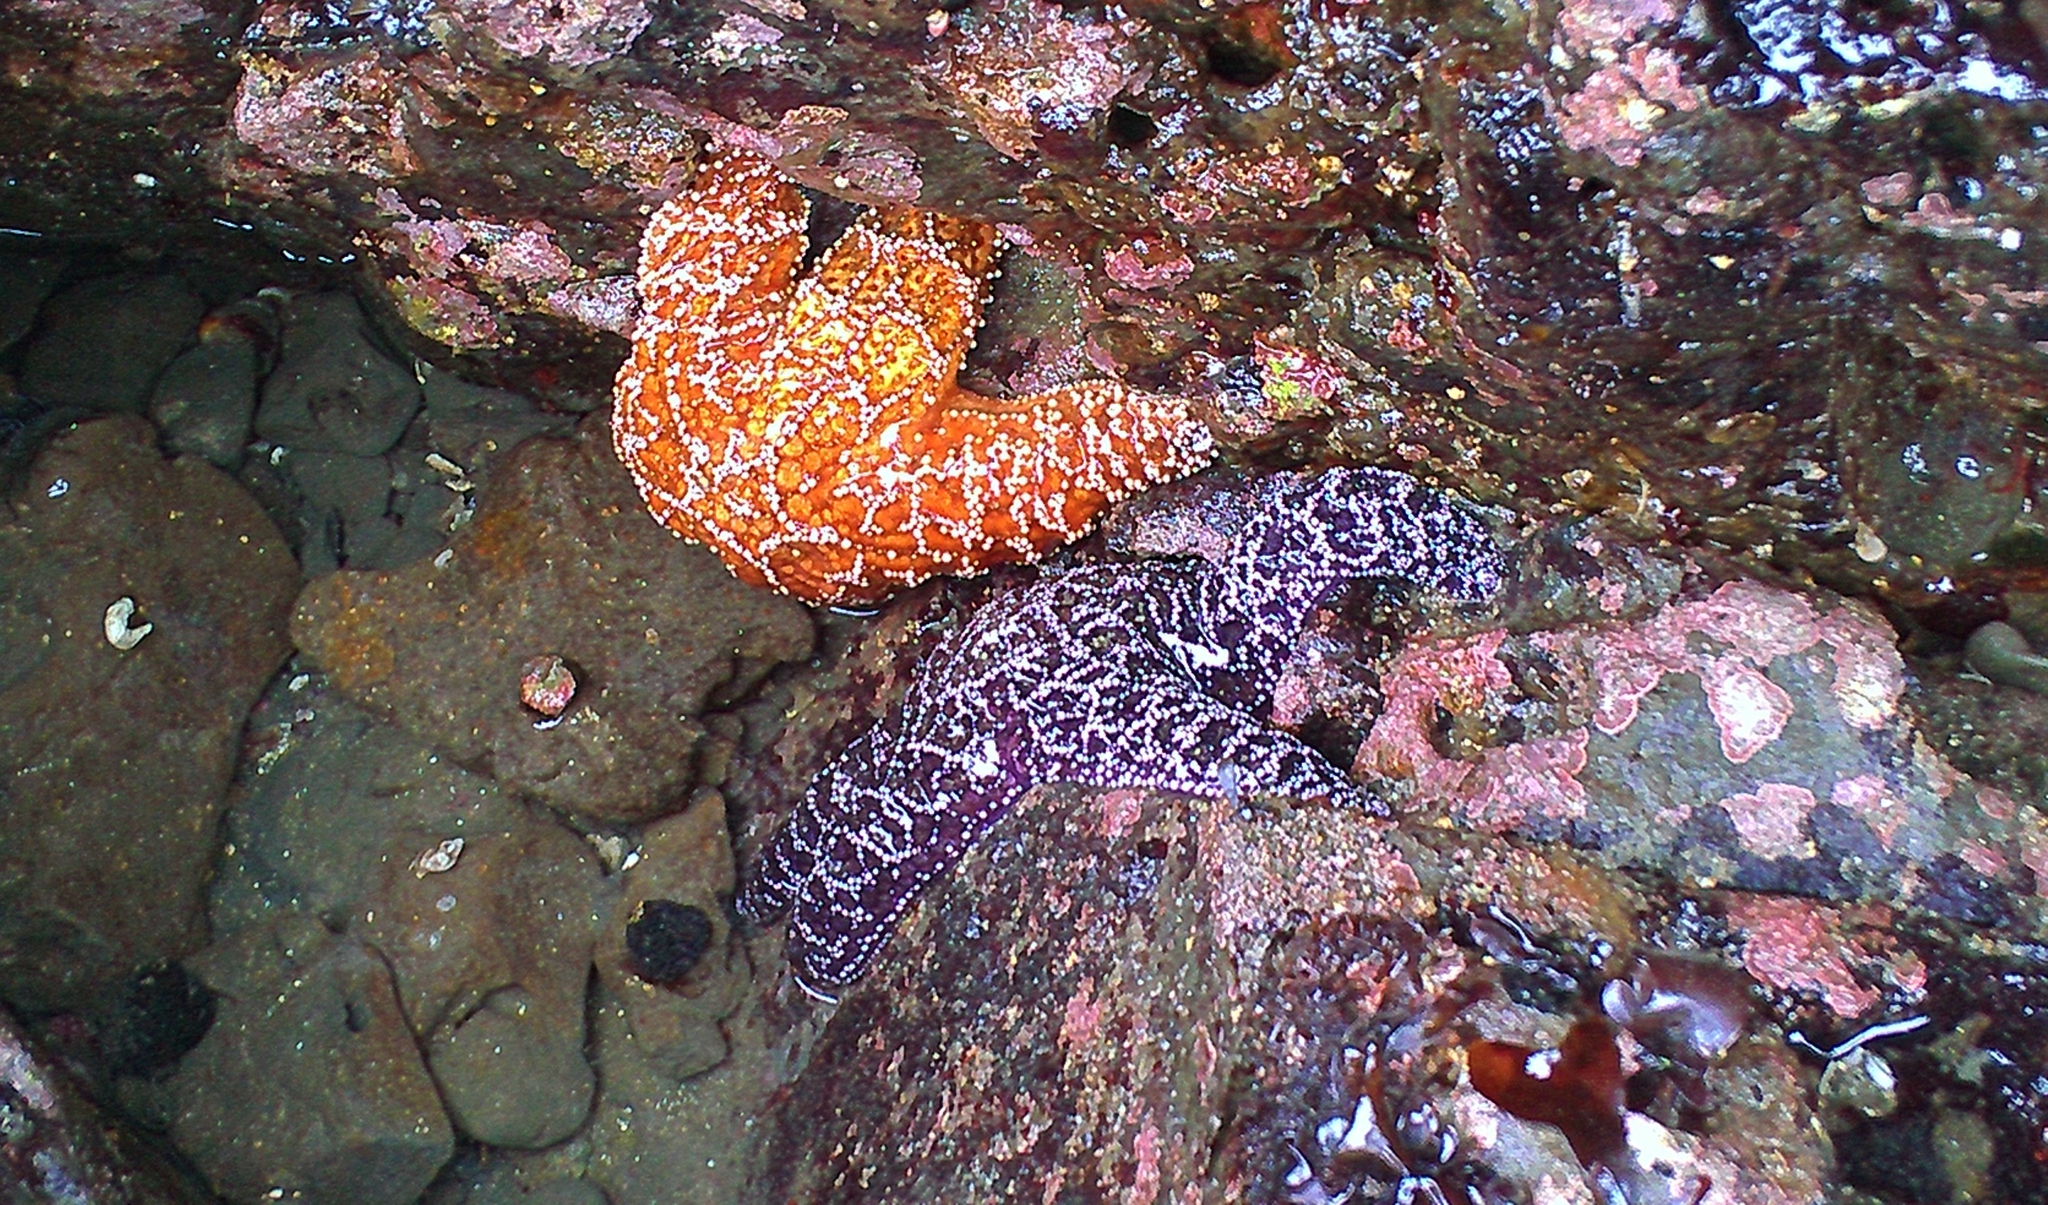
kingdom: Animalia
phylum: Echinodermata
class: Asteroidea
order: Forcipulatida
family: Asteriidae
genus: Pisaster
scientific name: Pisaster ochraceus
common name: Ochre stars
